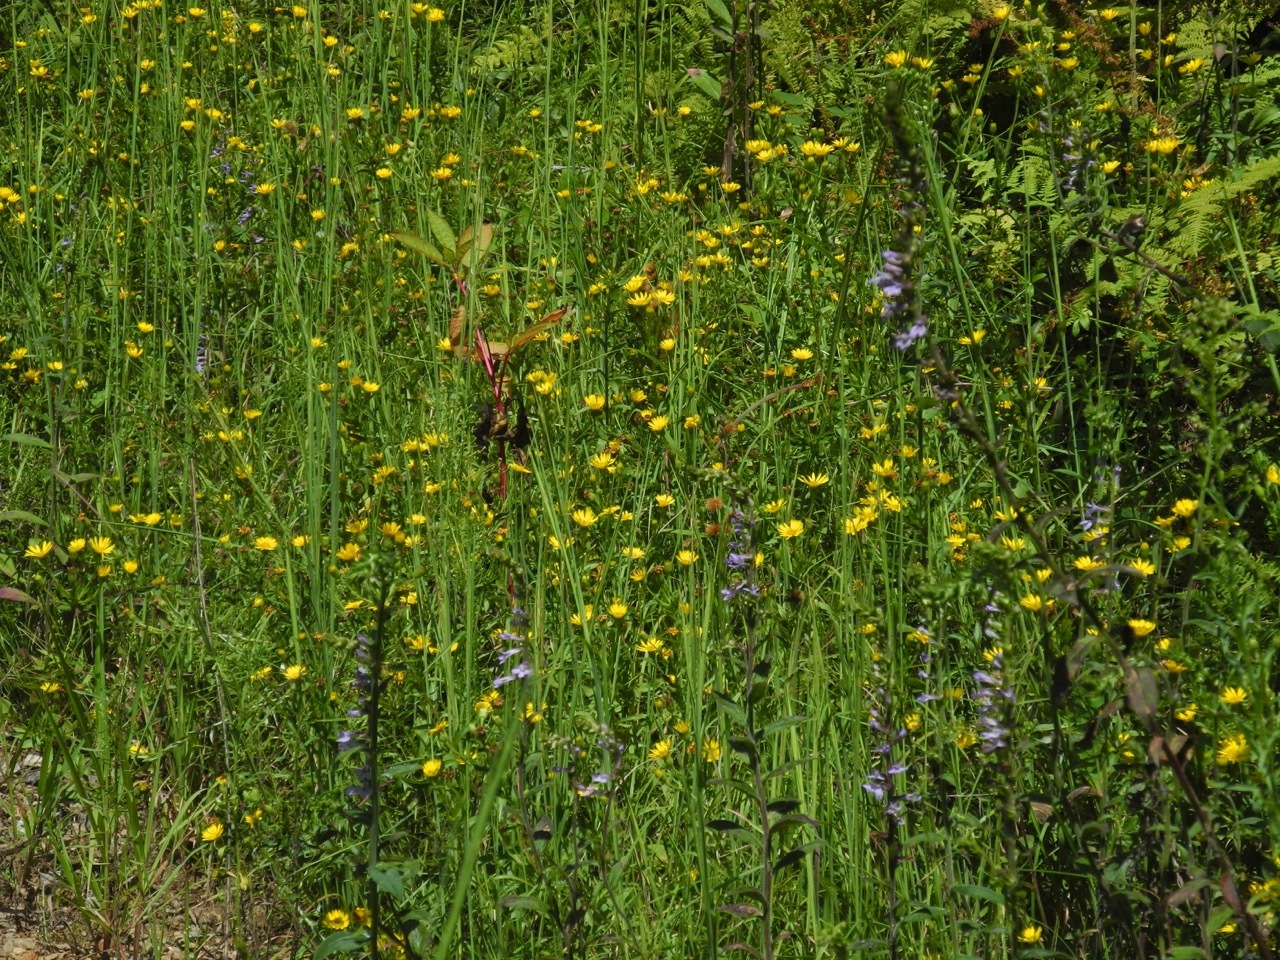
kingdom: Plantae
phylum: Tracheophyta
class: Magnoliopsida
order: Asterales
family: Asteraceae
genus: Chrysopsis
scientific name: Chrysopsis mariana
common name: Maryland golden-aster
